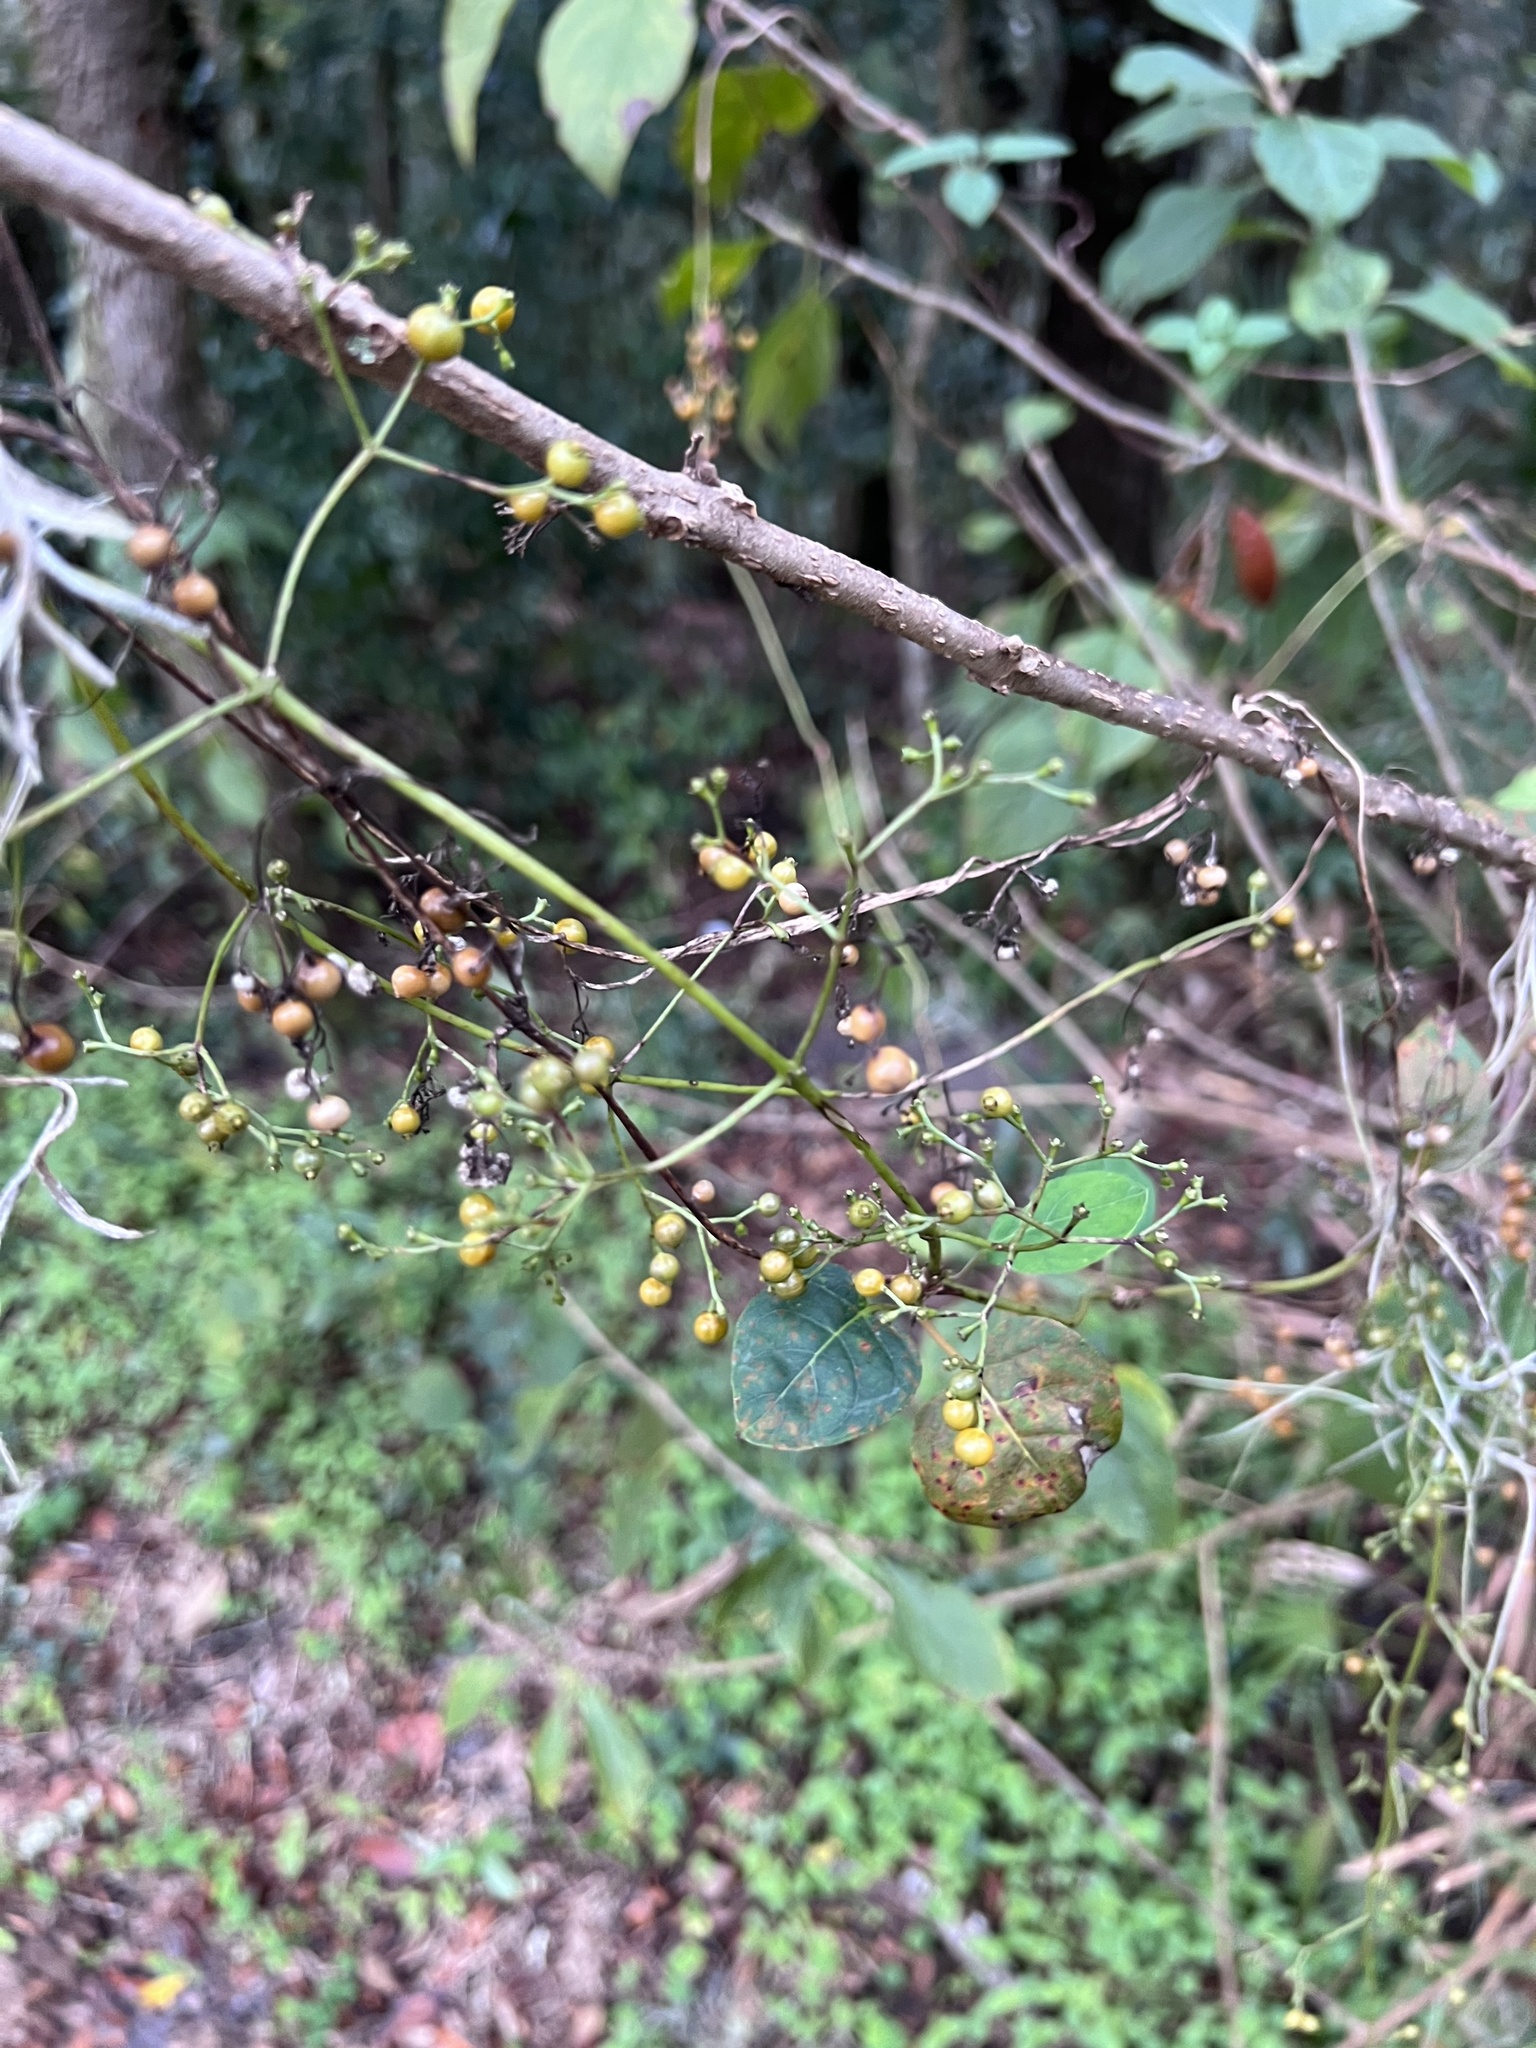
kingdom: Plantae
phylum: Tracheophyta
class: Magnoliopsida
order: Gentianales
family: Rubiaceae
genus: Paederia
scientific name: Paederia foetida
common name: Stinkvine
